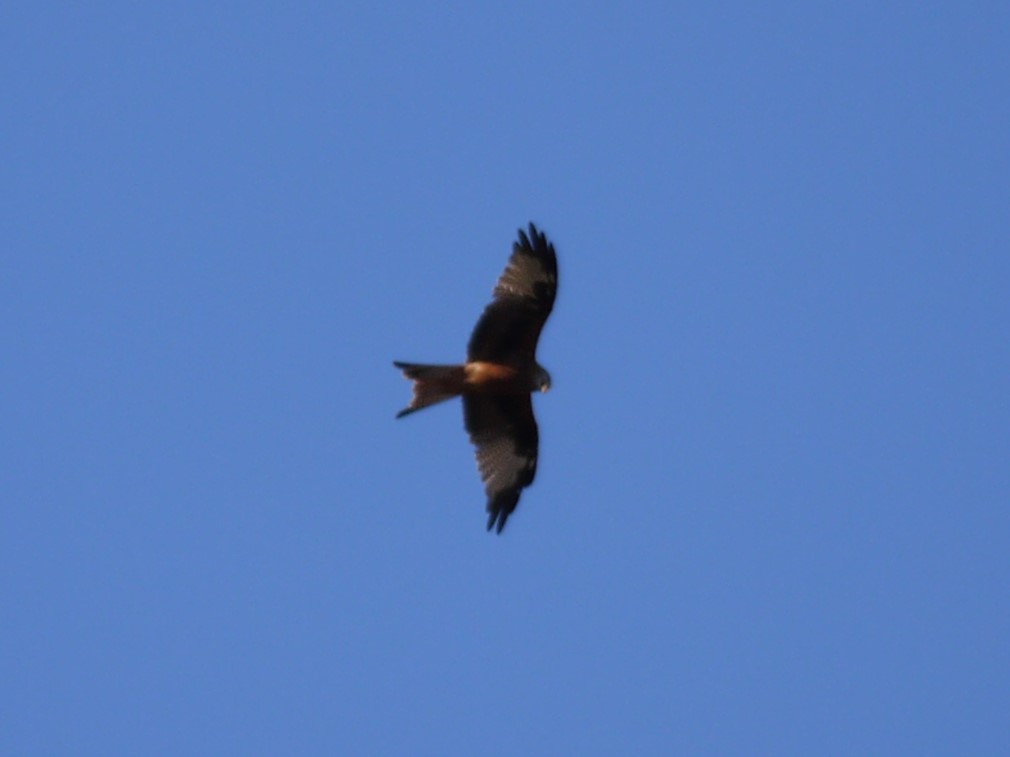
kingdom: Animalia
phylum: Chordata
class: Aves
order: Accipitriformes
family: Accipitridae
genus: Milvus
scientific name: Milvus milvus
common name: Red kite
